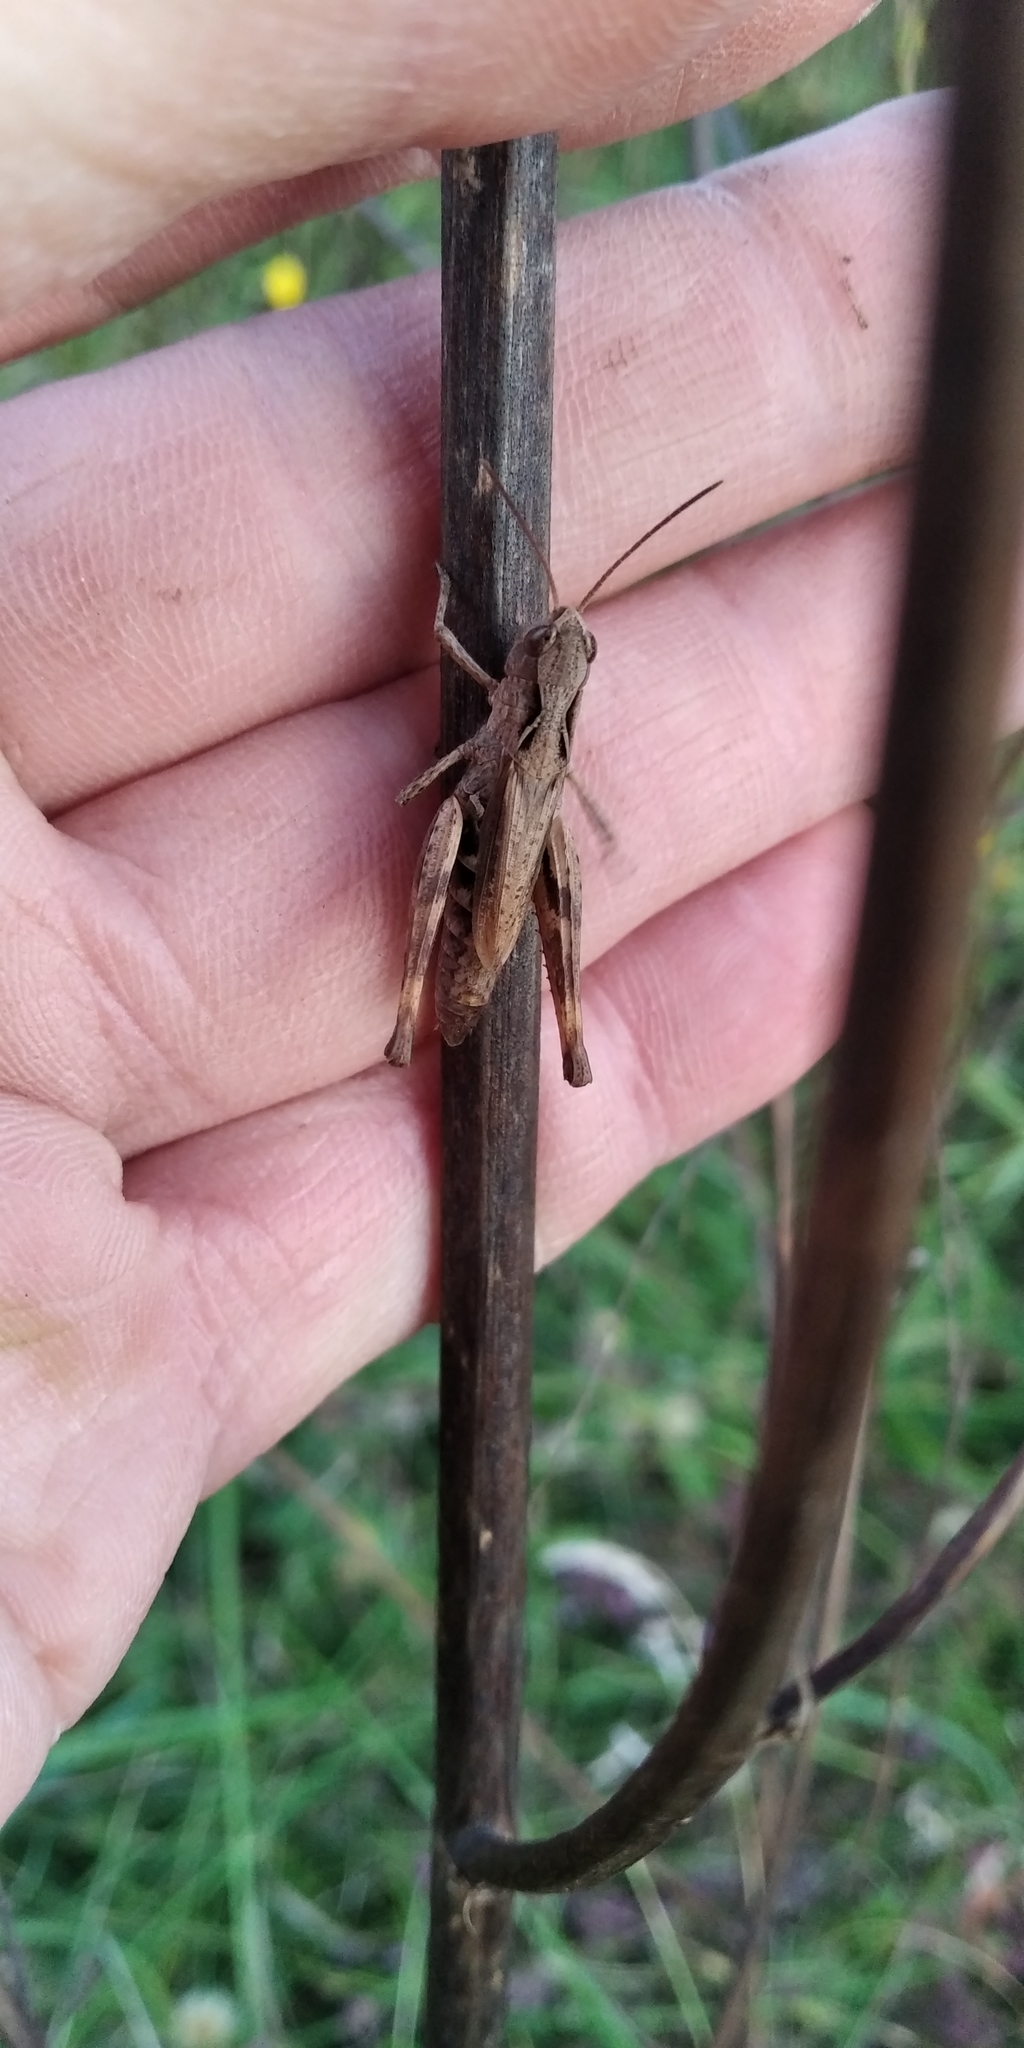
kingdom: Animalia
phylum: Arthropoda
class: Insecta
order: Orthoptera
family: Acrididae
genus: Chorthippus
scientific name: Chorthippus macrocerus
